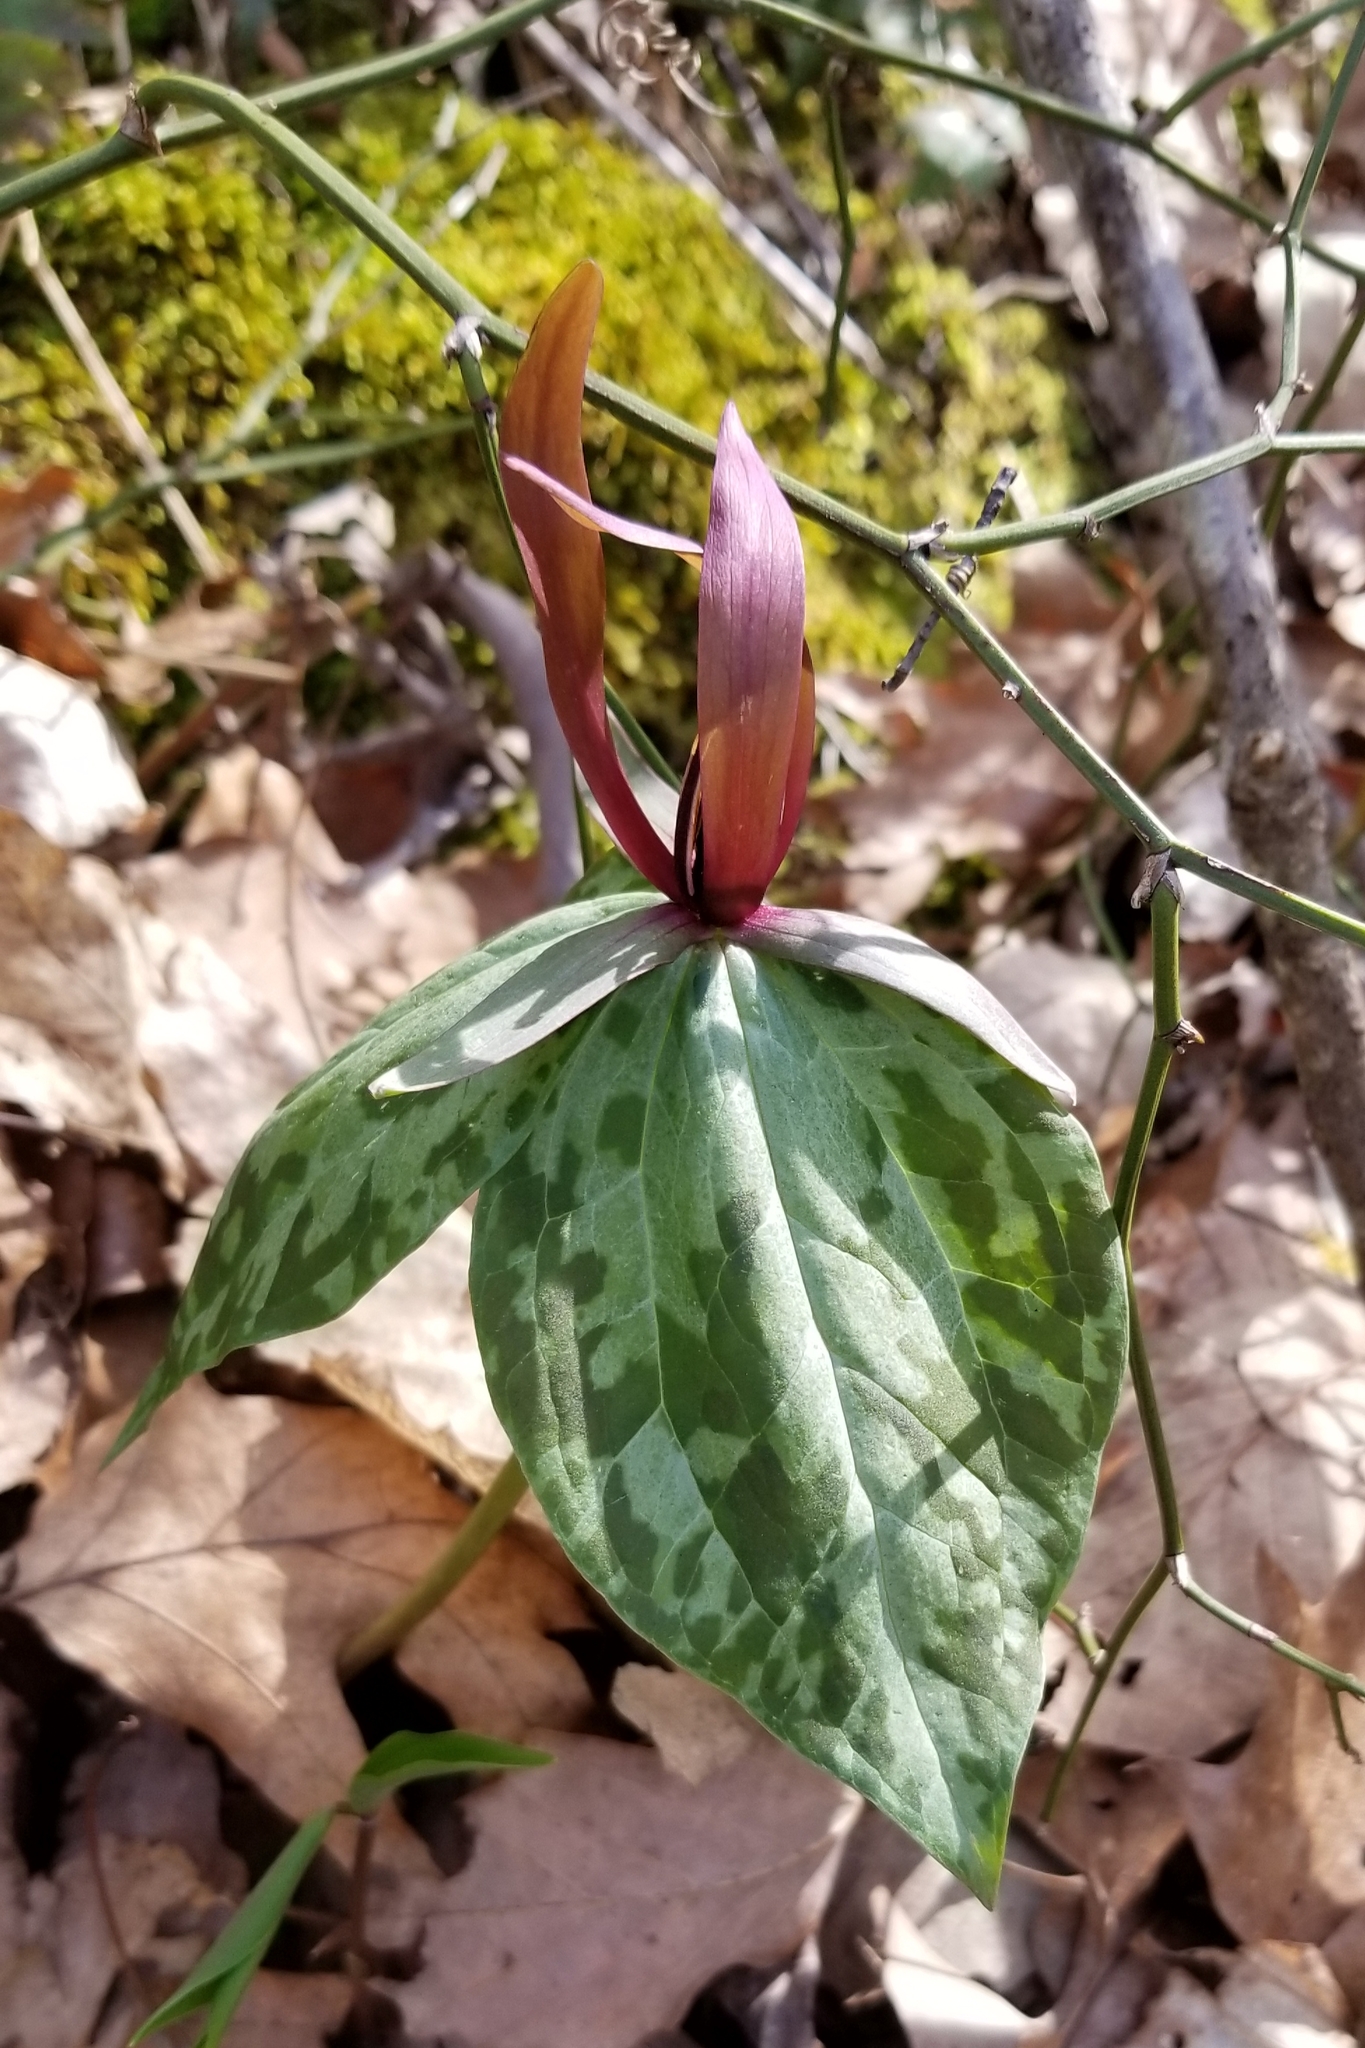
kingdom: Plantae
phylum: Tracheophyta
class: Liliopsida
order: Liliales
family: Melanthiaceae
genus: Trillium
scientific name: Trillium cuneatum
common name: Cuneate trillium
